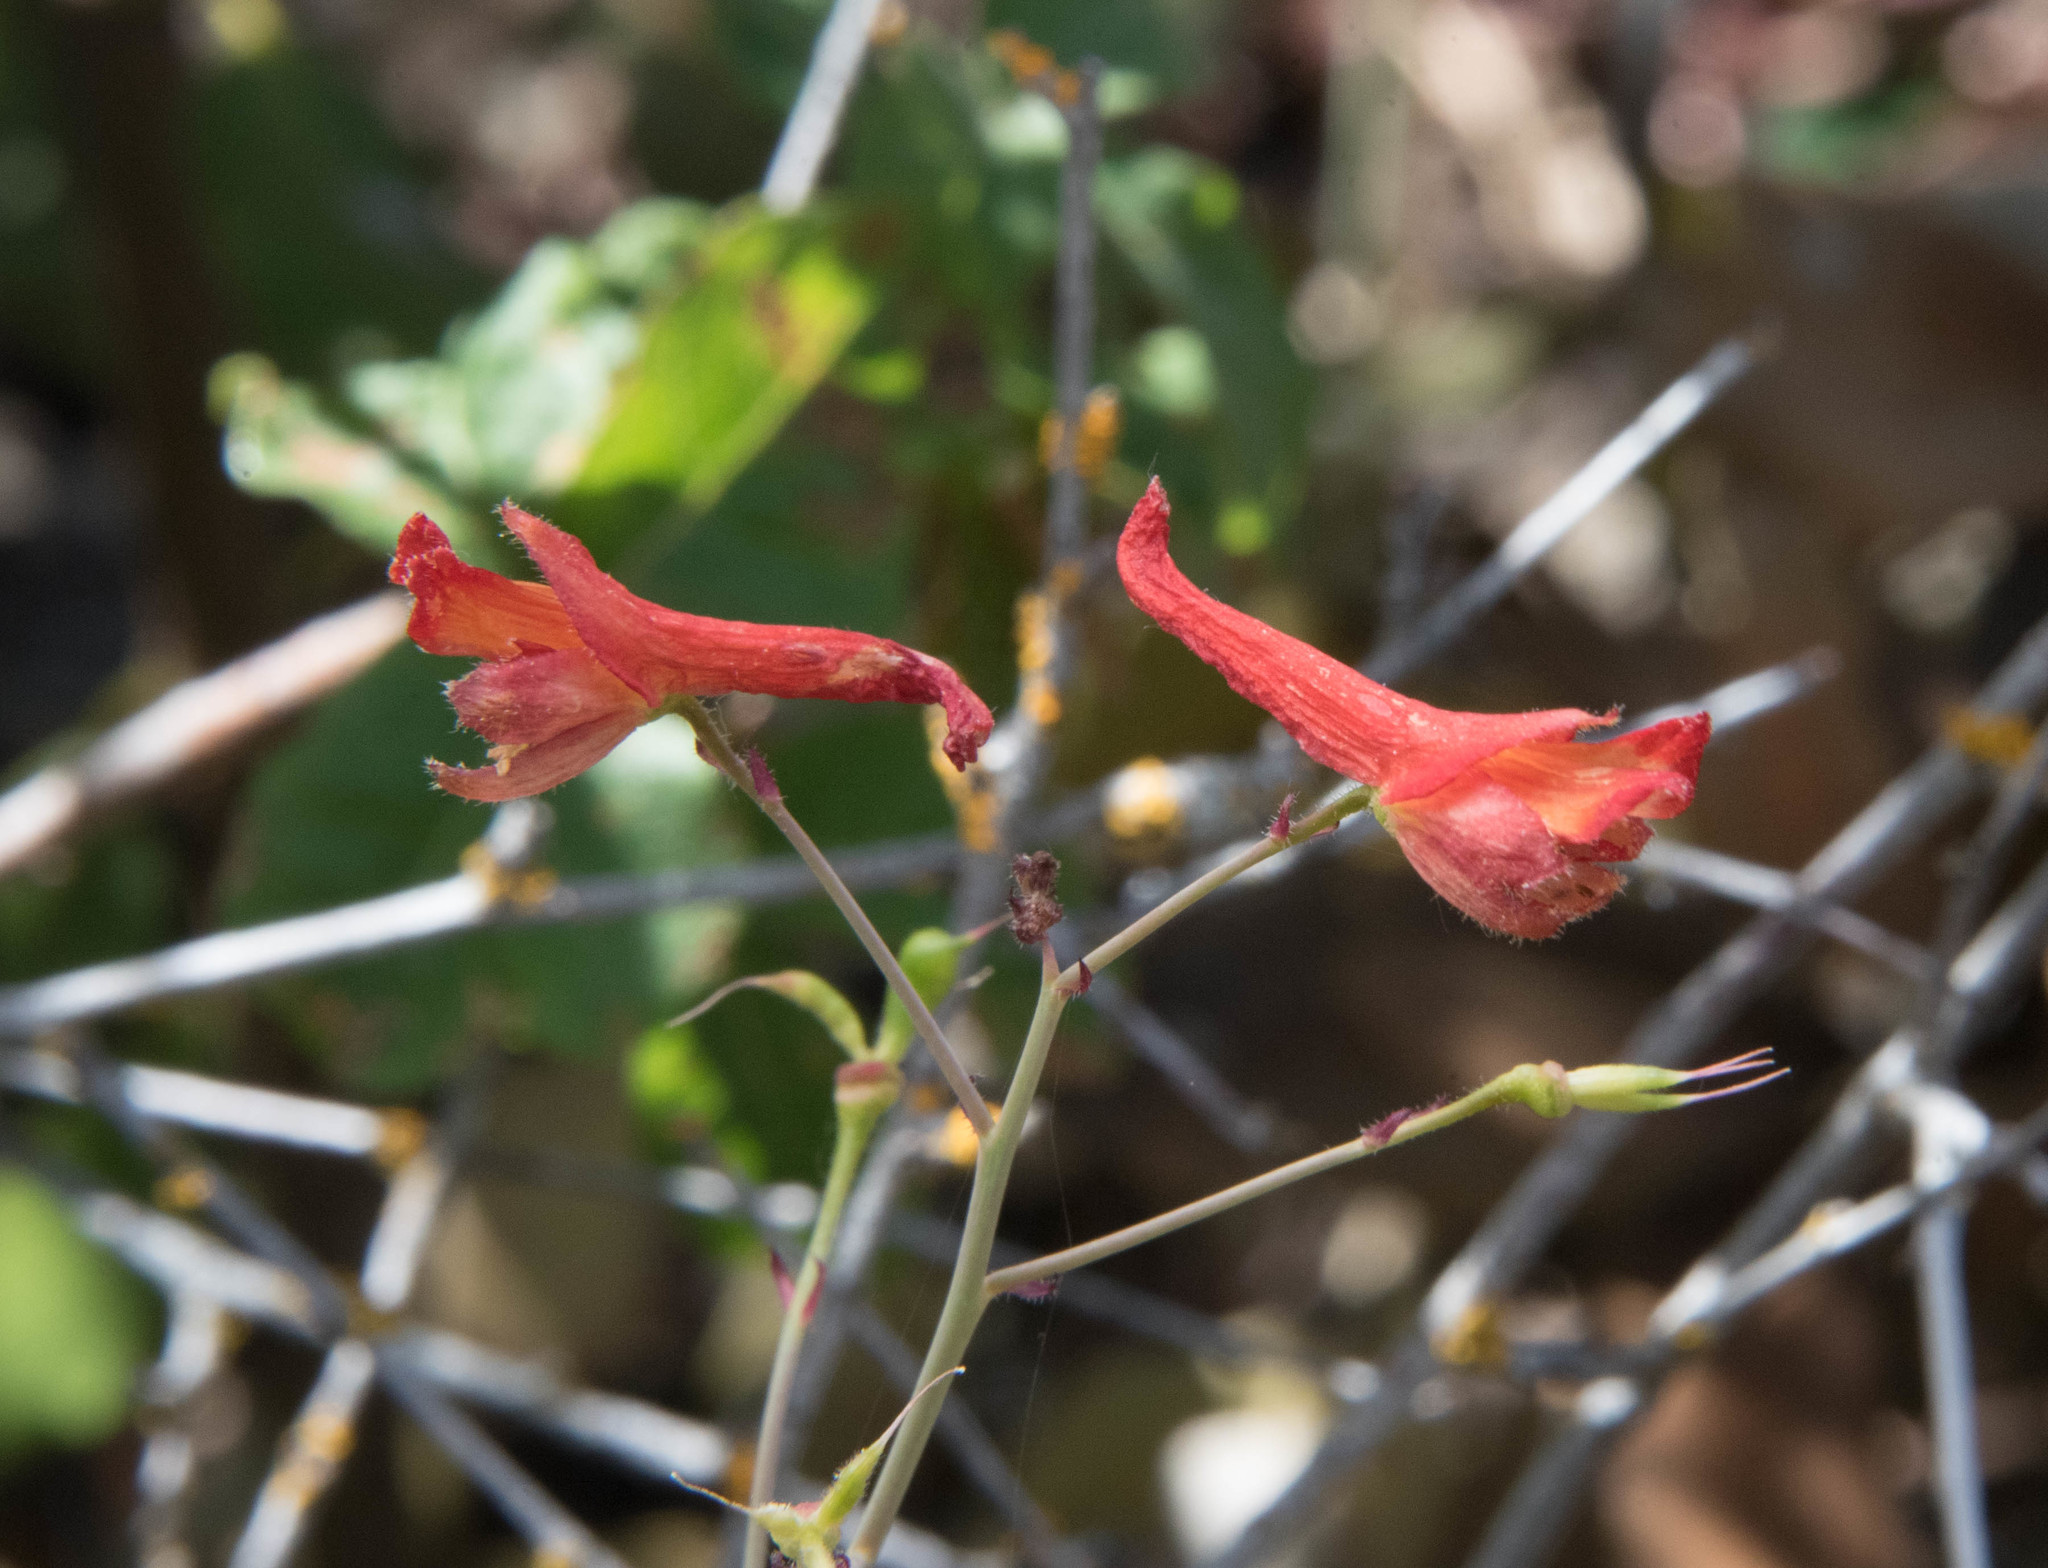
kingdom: Plantae
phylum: Tracheophyta
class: Magnoliopsida
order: Ranunculales
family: Ranunculaceae
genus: Delphinium
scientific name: Delphinium nudicaule
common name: Red larkspur
